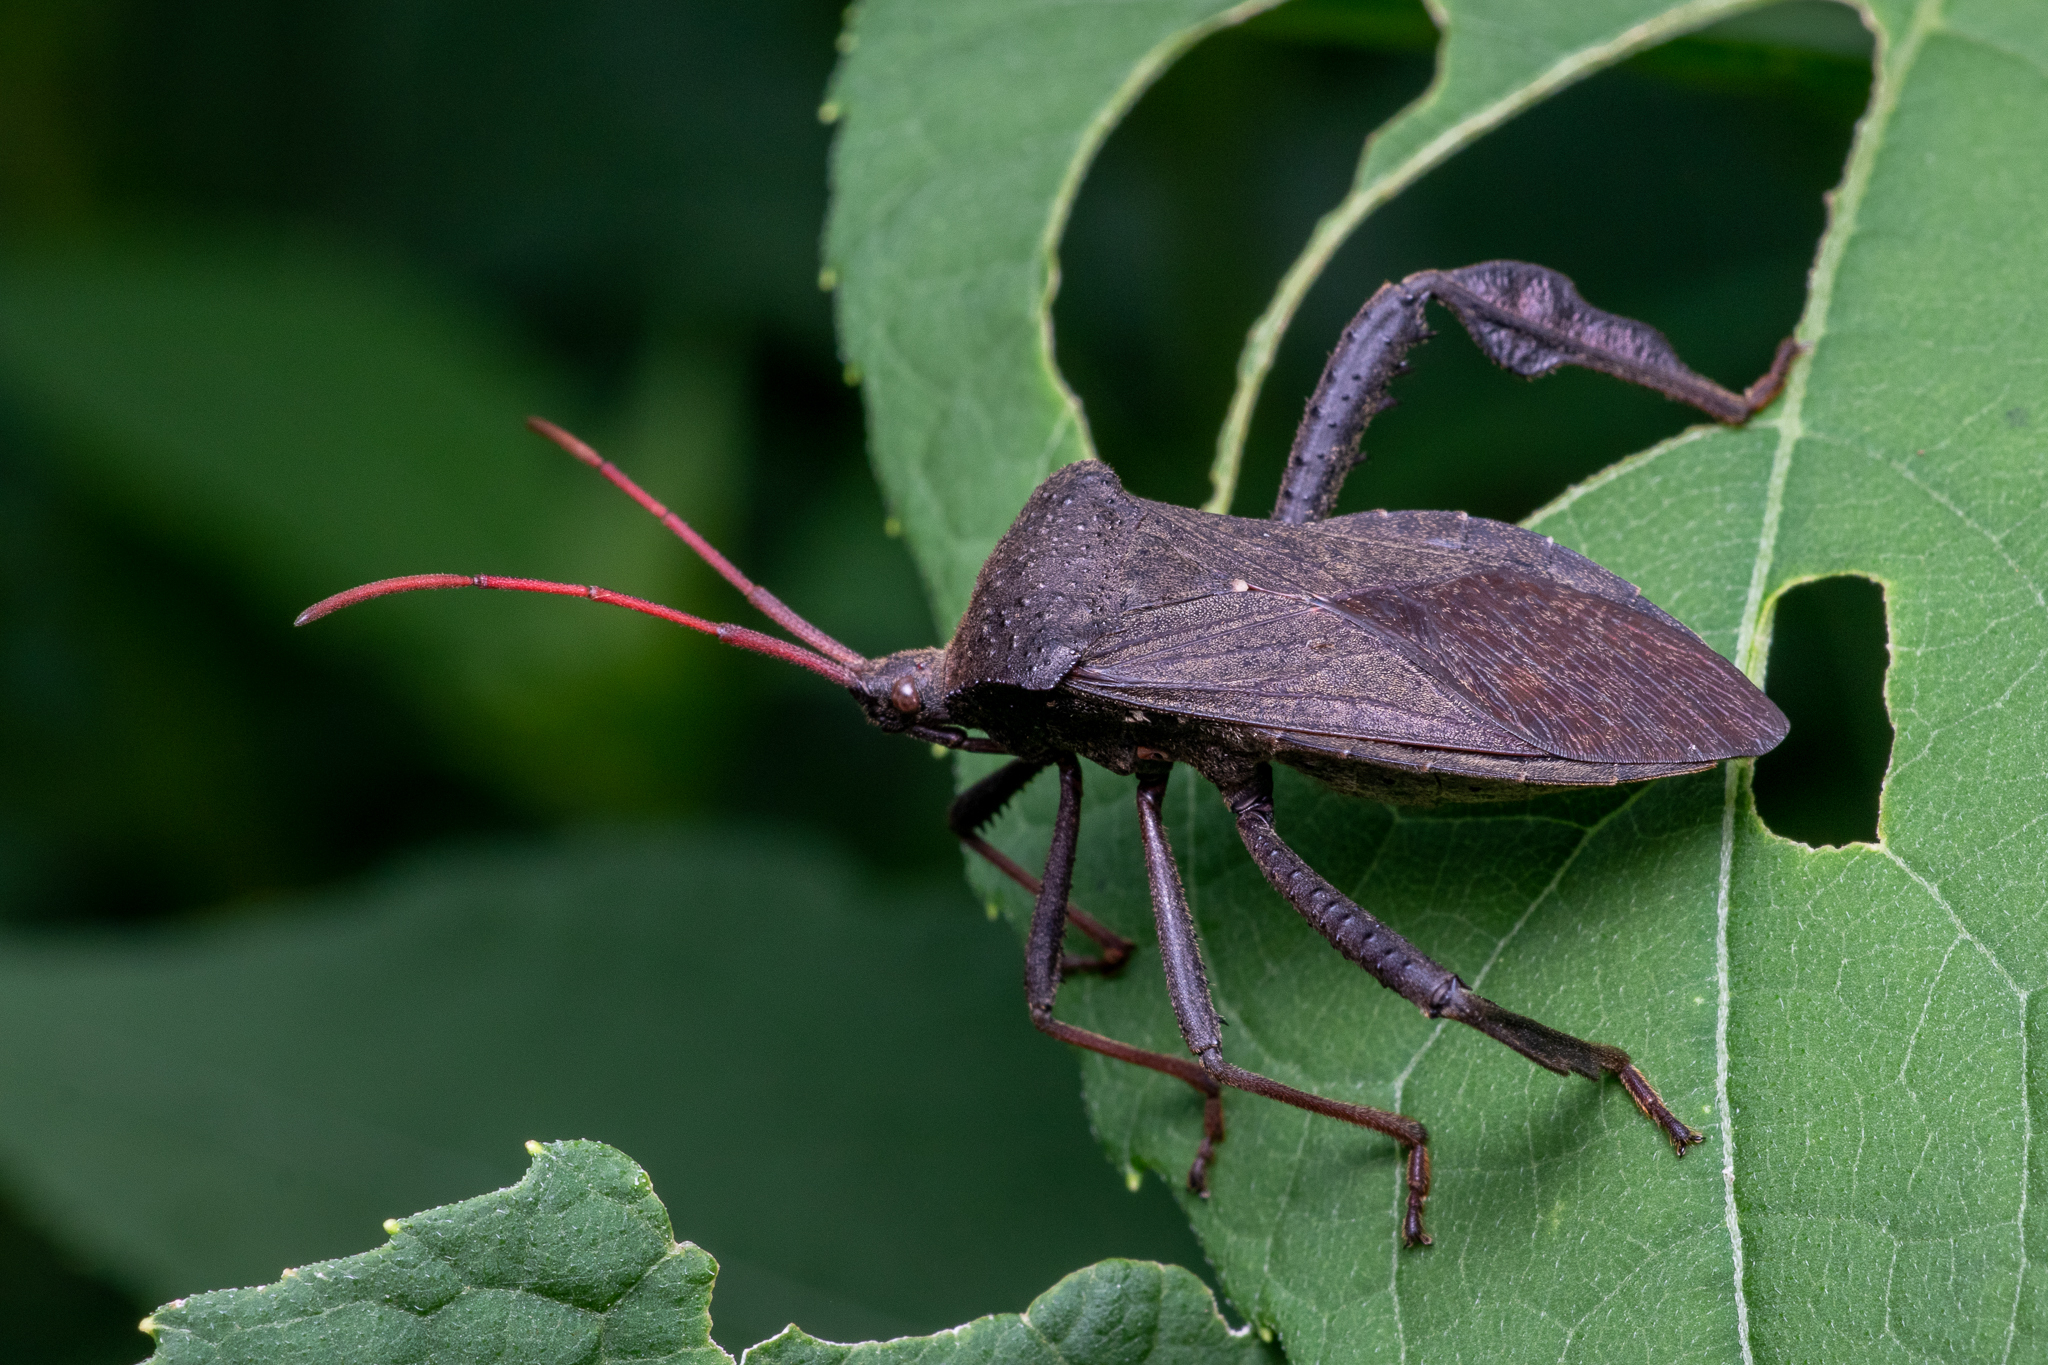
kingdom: Animalia
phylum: Arthropoda
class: Insecta
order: Hemiptera
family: Coreidae
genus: Acanthocephala
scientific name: Acanthocephala femorata
